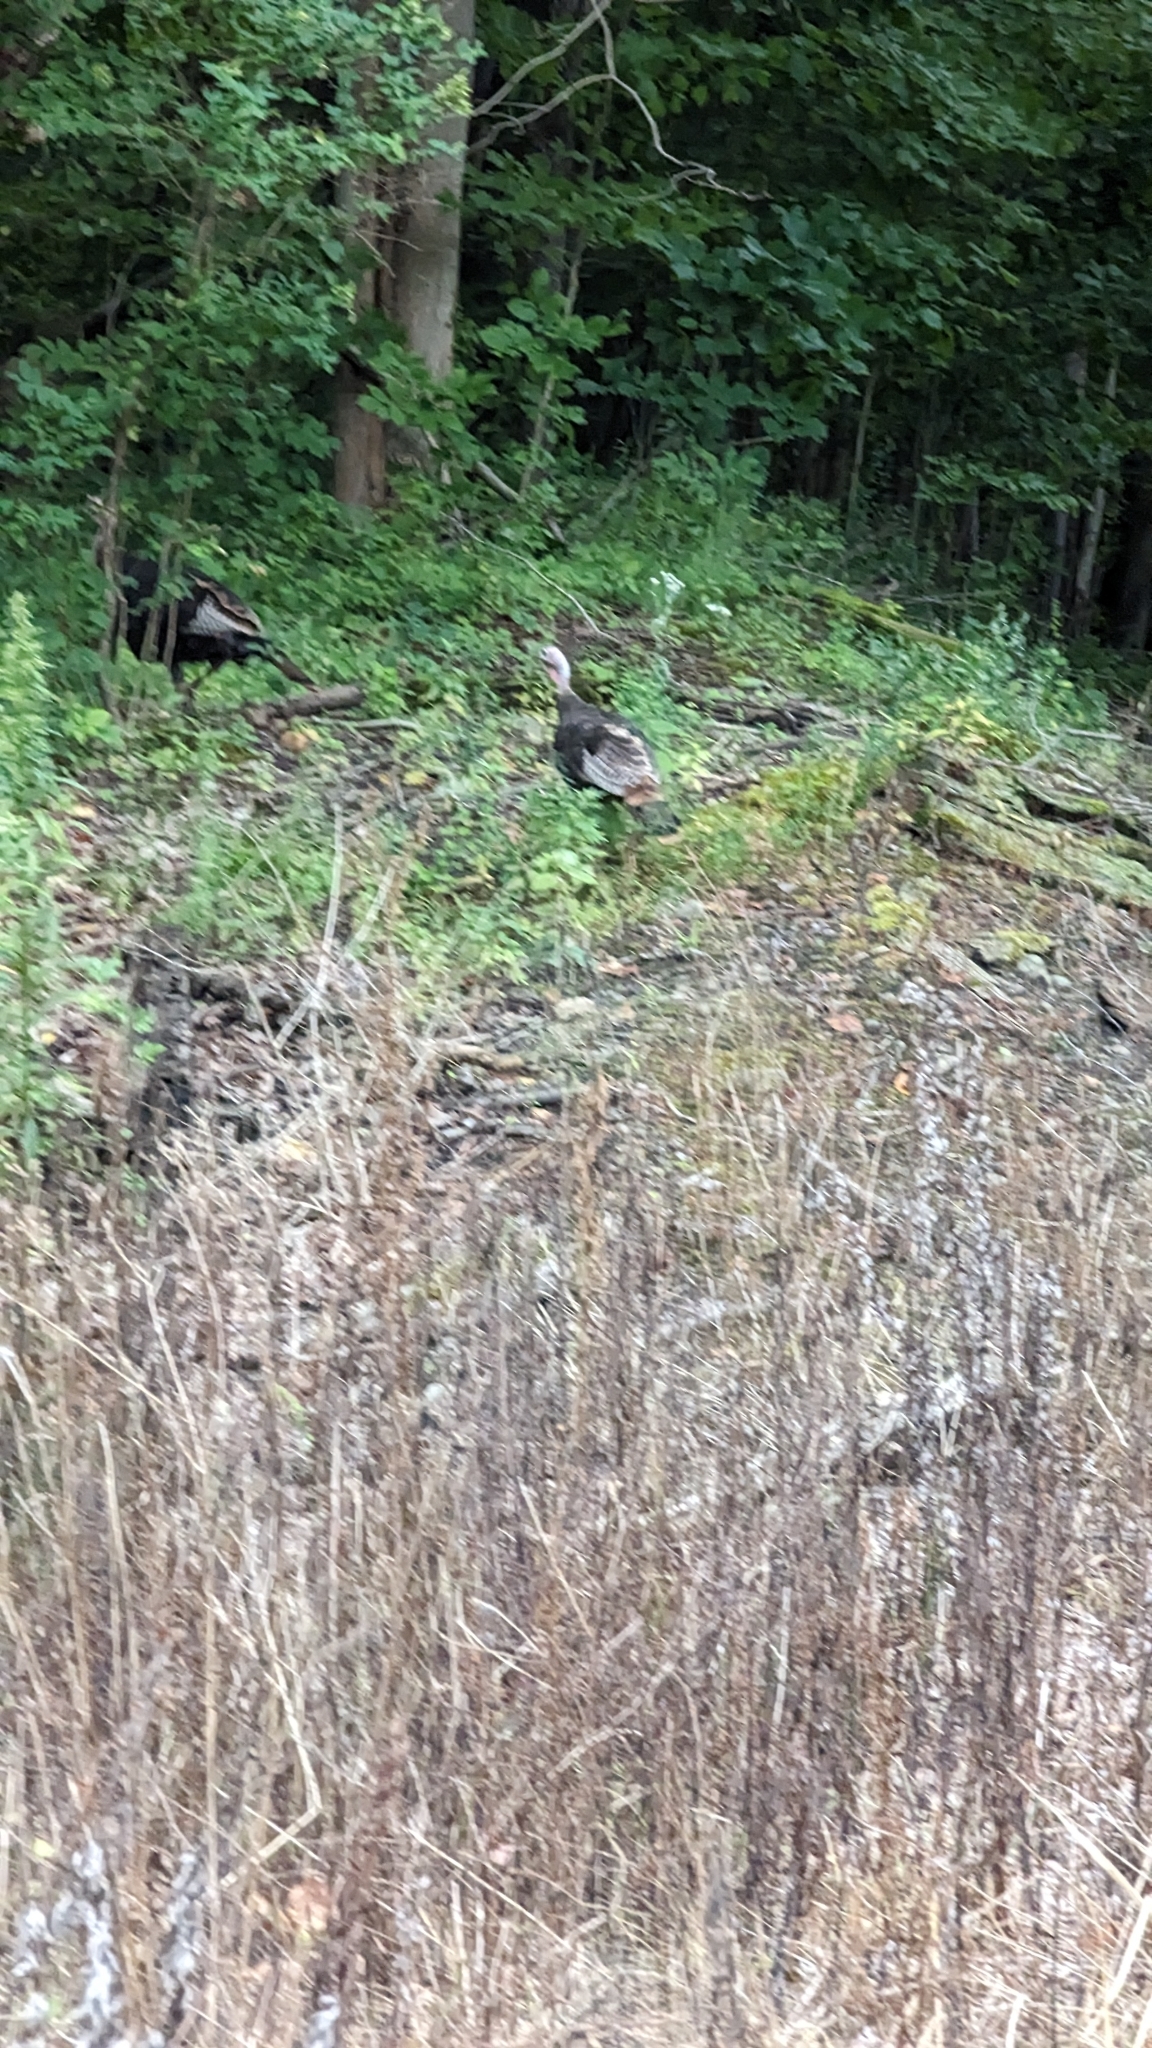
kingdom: Animalia
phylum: Chordata
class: Aves
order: Galliformes
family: Phasianidae
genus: Meleagris
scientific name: Meleagris gallopavo
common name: Wild turkey
